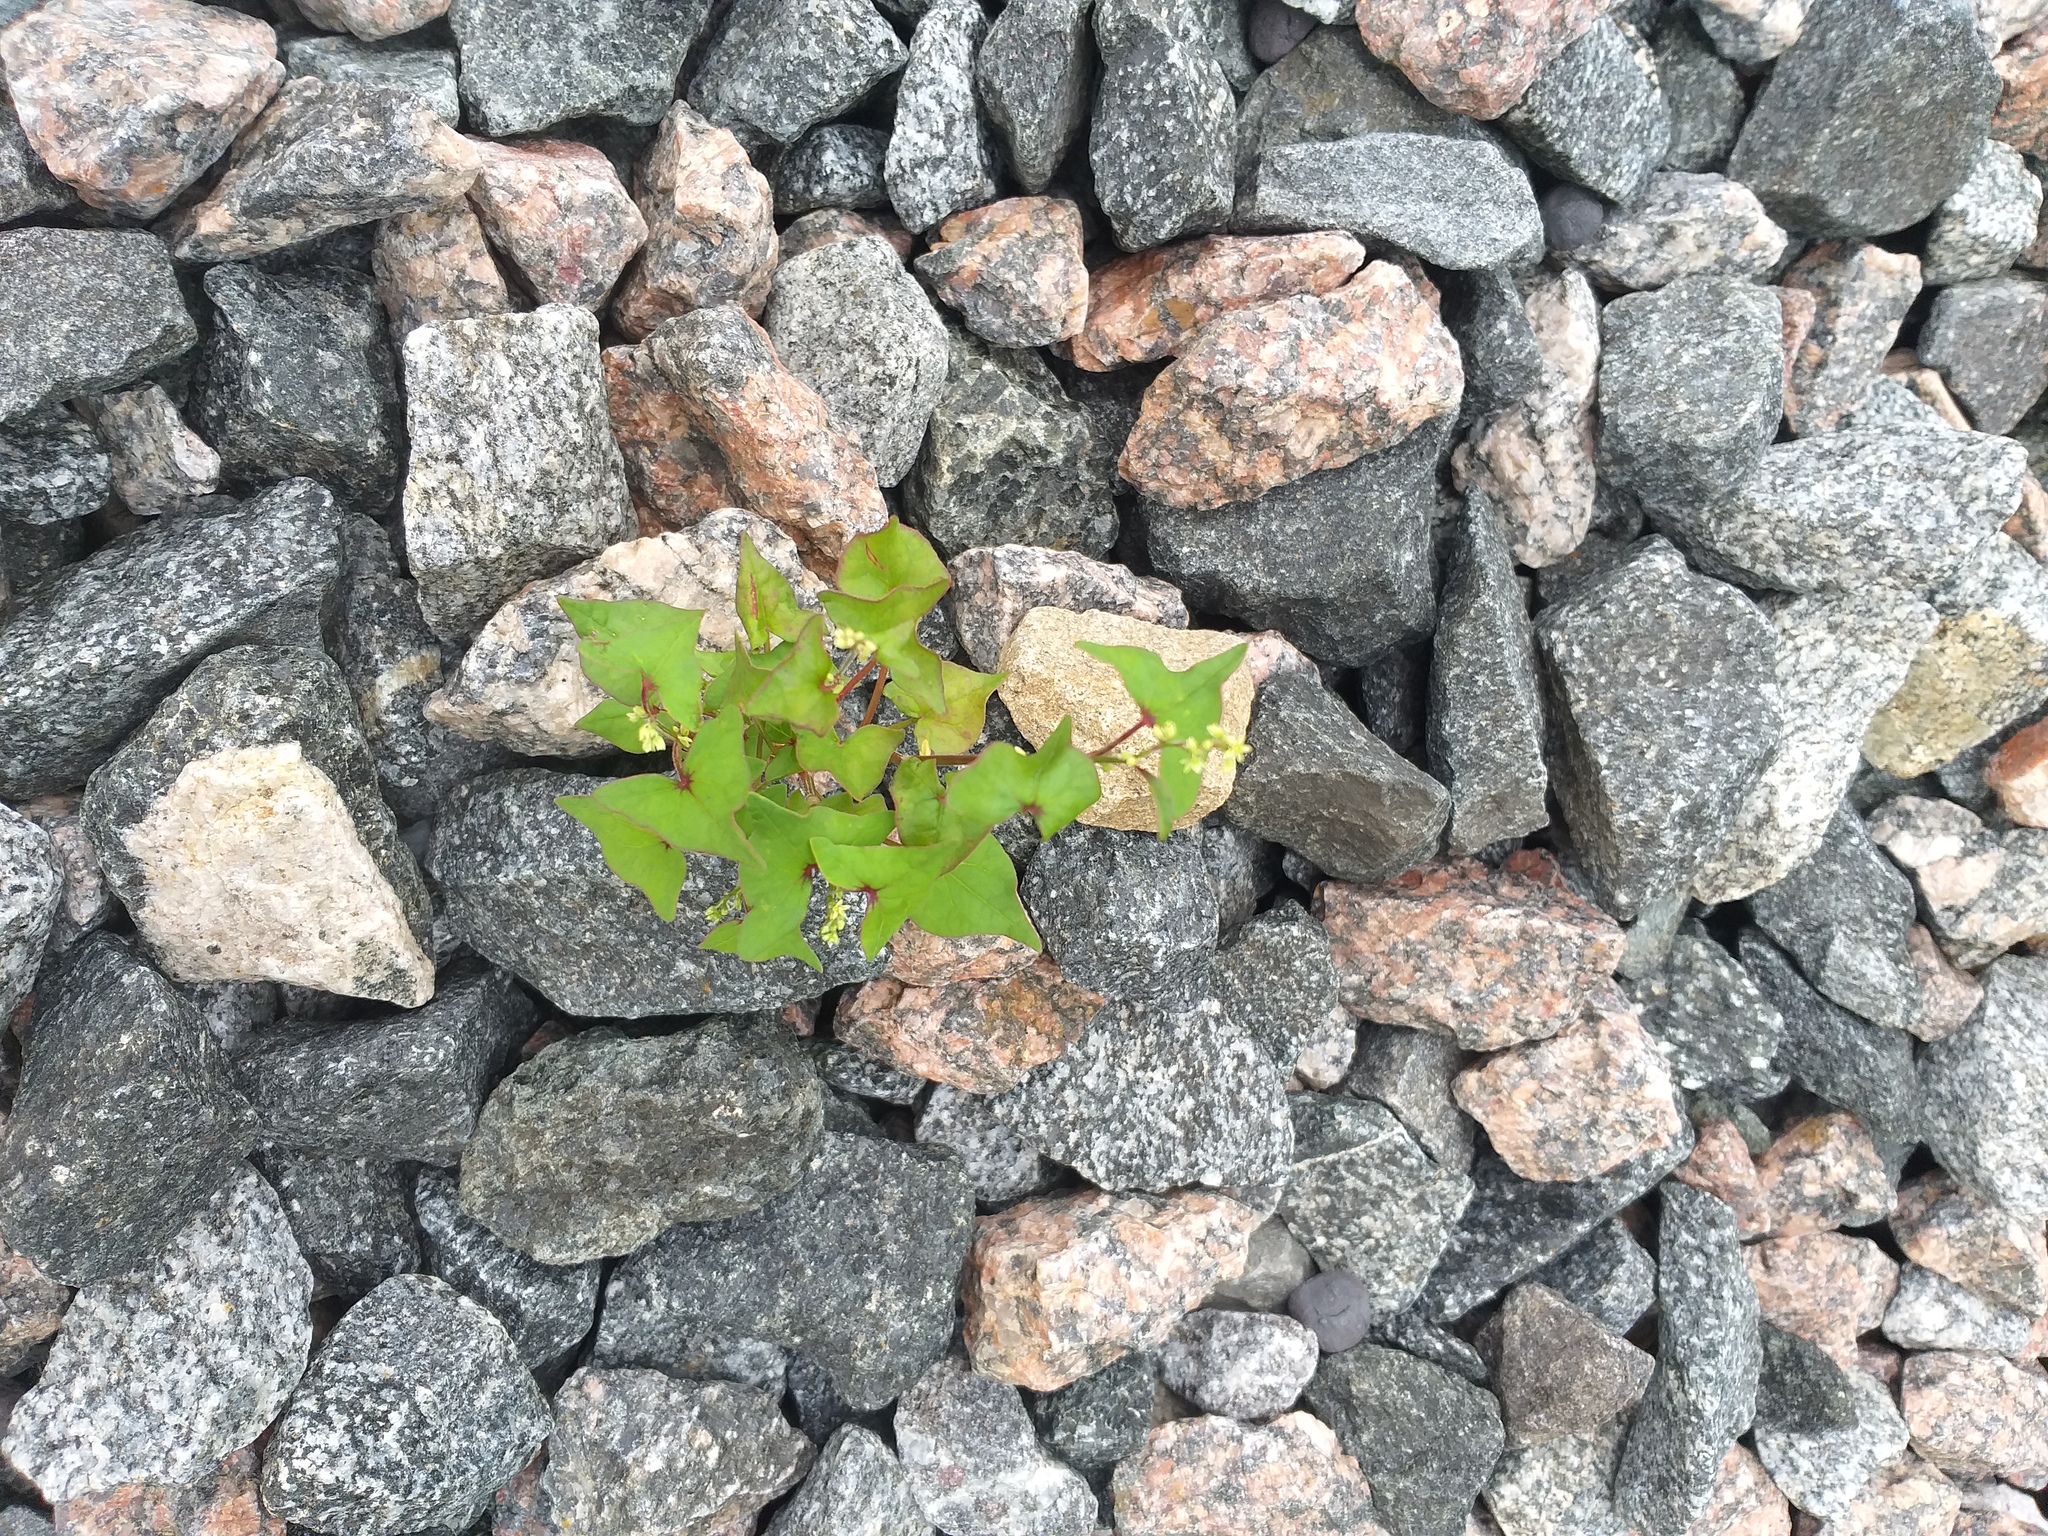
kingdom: Plantae
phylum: Tracheophyta
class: Magnoliopsida
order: Caryophyllales
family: Polygonaceae
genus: Fagopyrum
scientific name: Fagopyrum tataricum
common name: Green buckwheat
